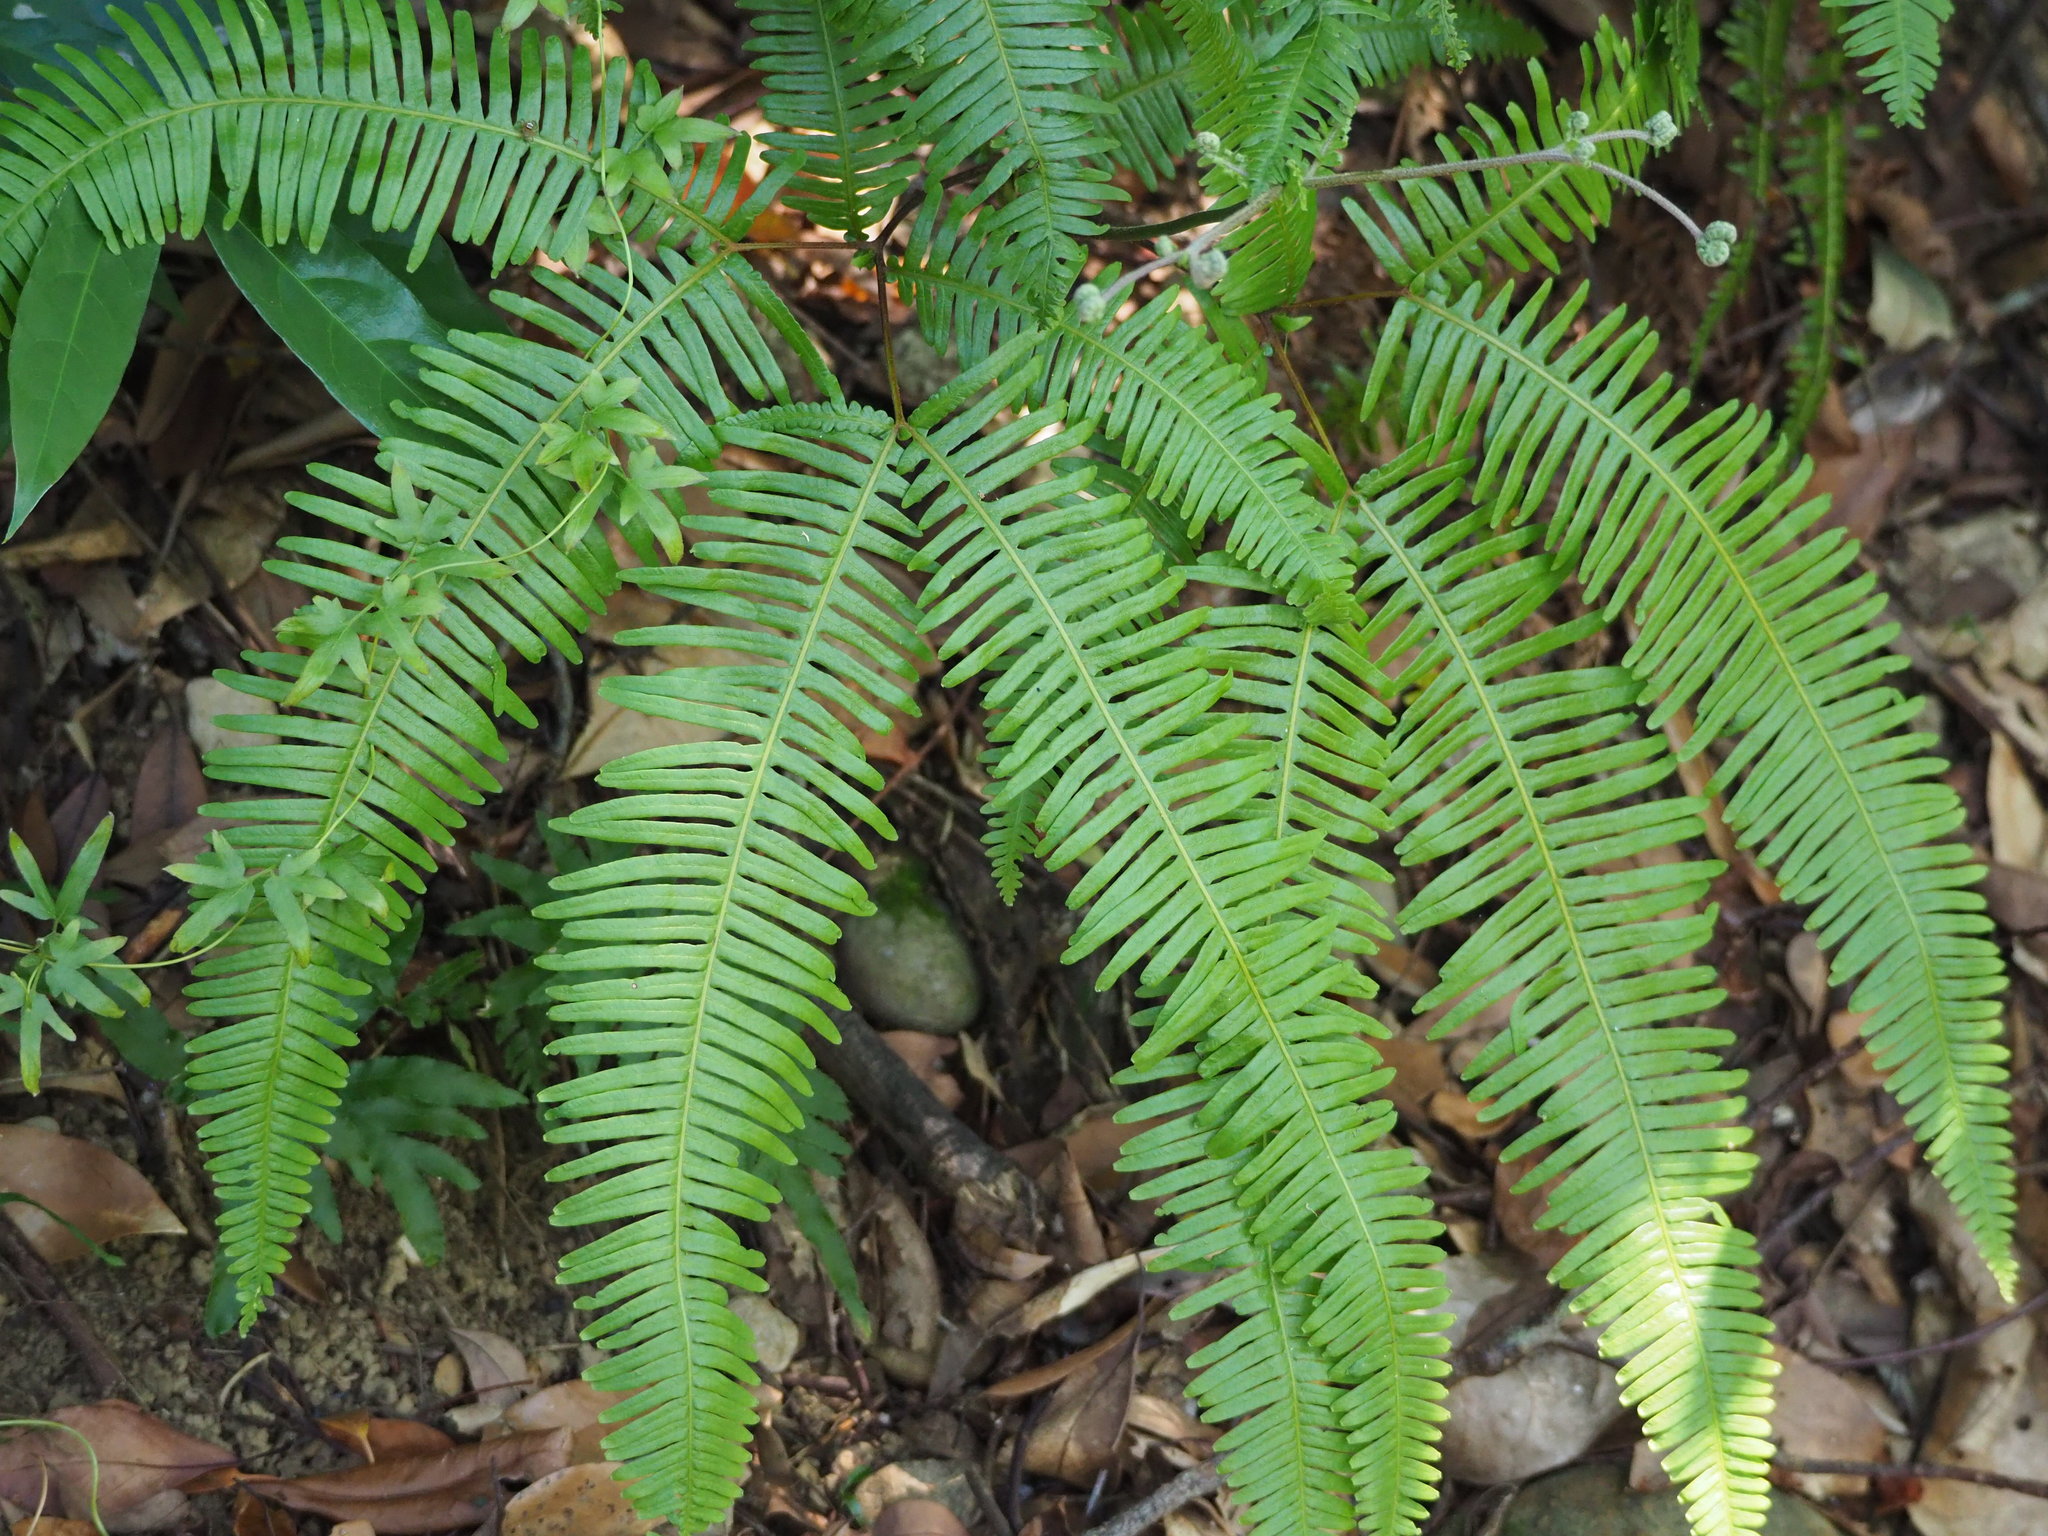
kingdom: Plantae
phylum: Tracheophyta
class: Polypodiopsida
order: Gleicheniales
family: Gleicheniaceae
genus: Dicranopteris
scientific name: Dicranopteris linearis
